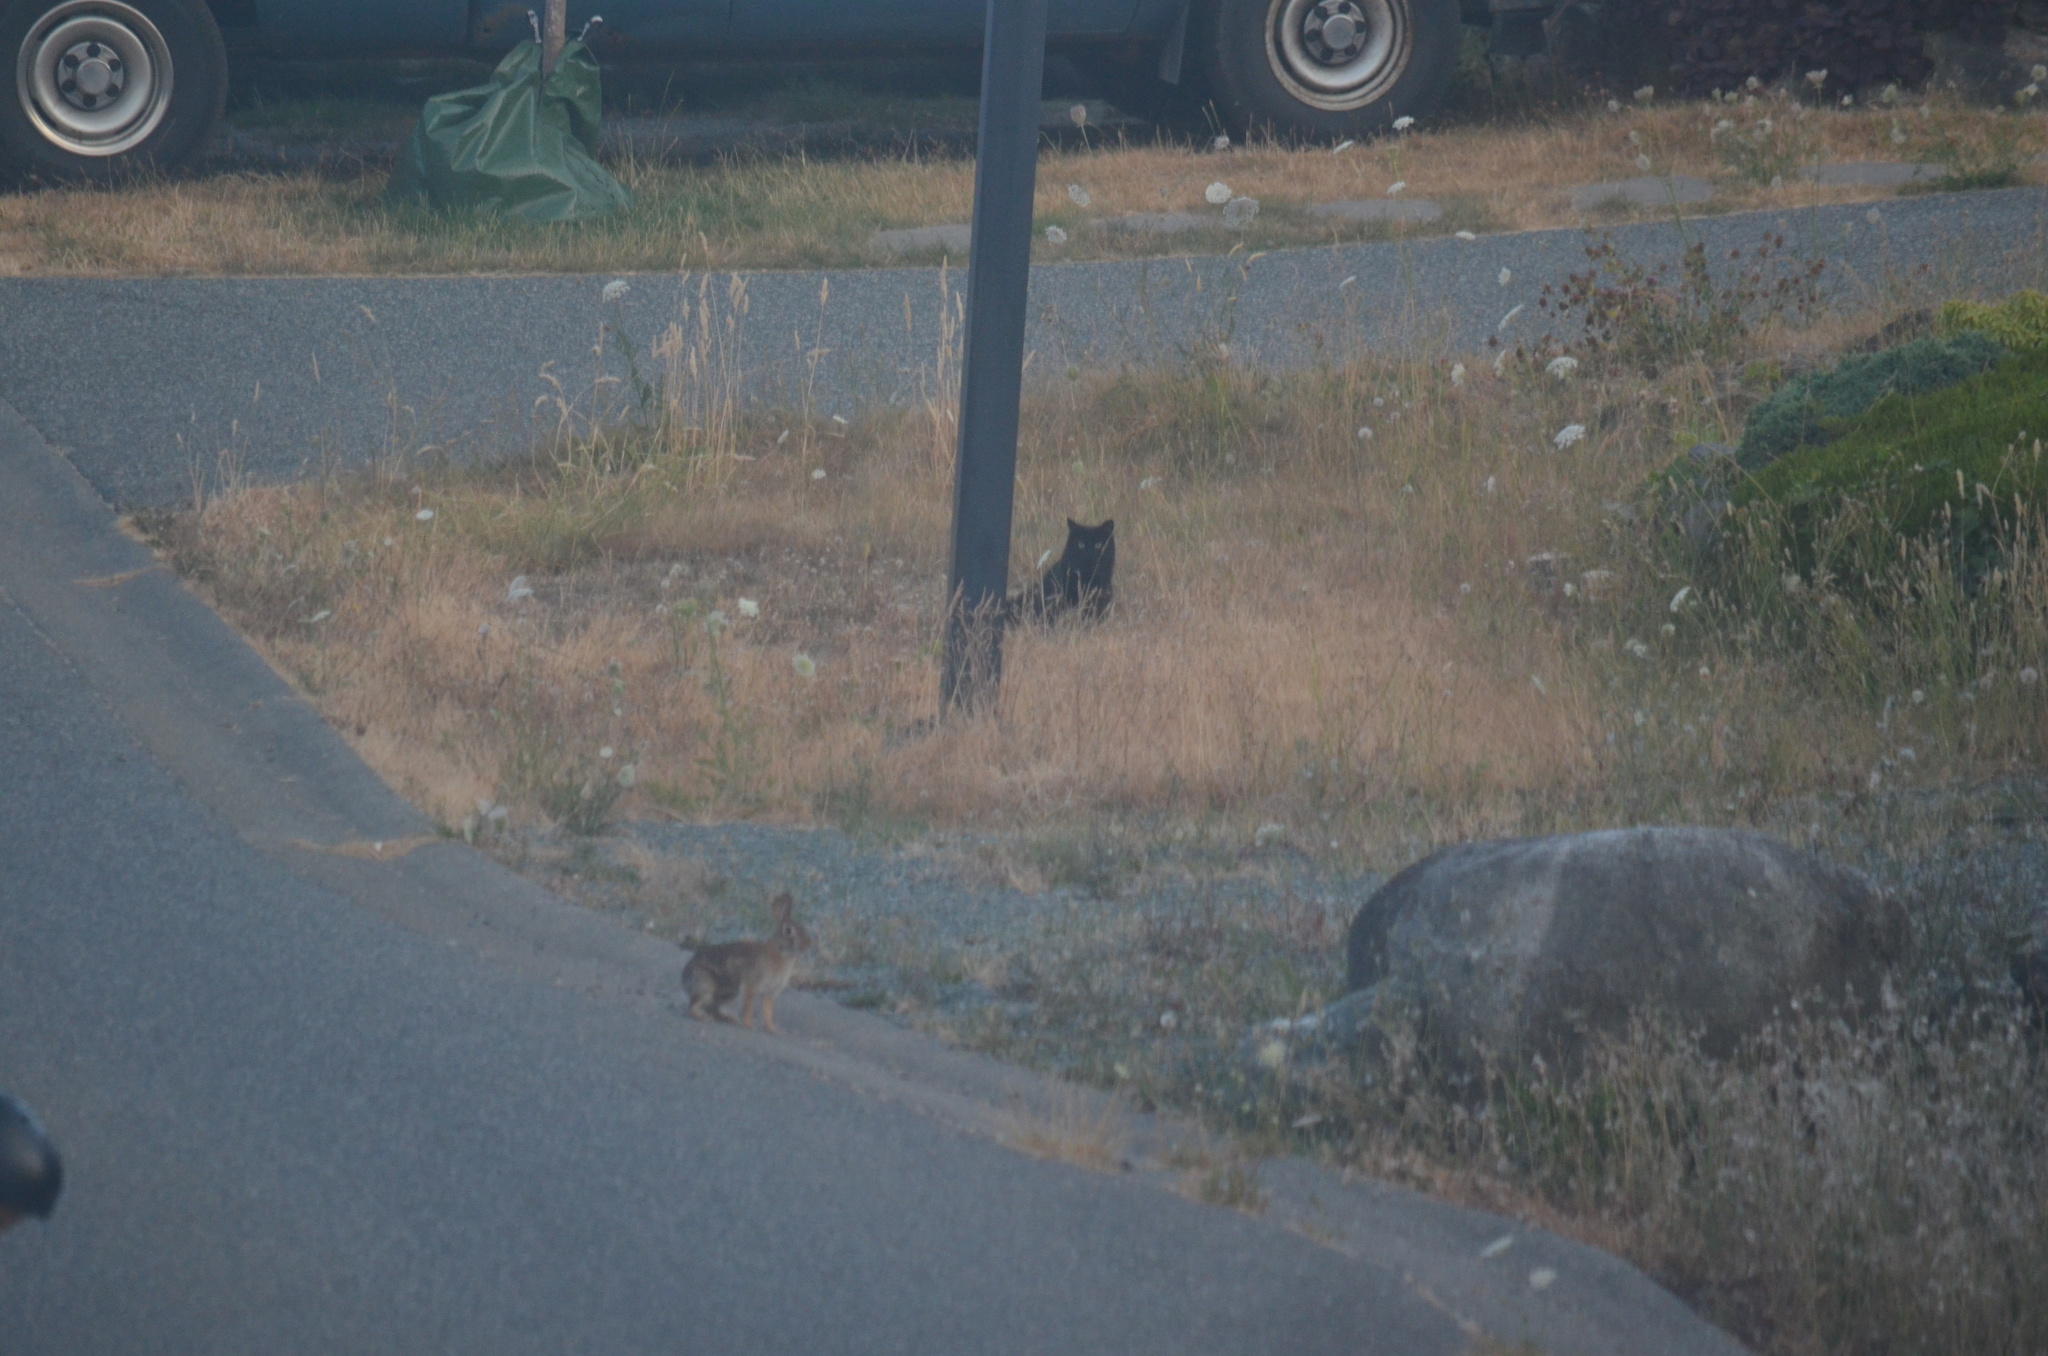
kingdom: Animalia
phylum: Chordata
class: Mammalia
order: Carnivora
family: Felidae
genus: Felis
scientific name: Felis catus
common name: Domestic cat
